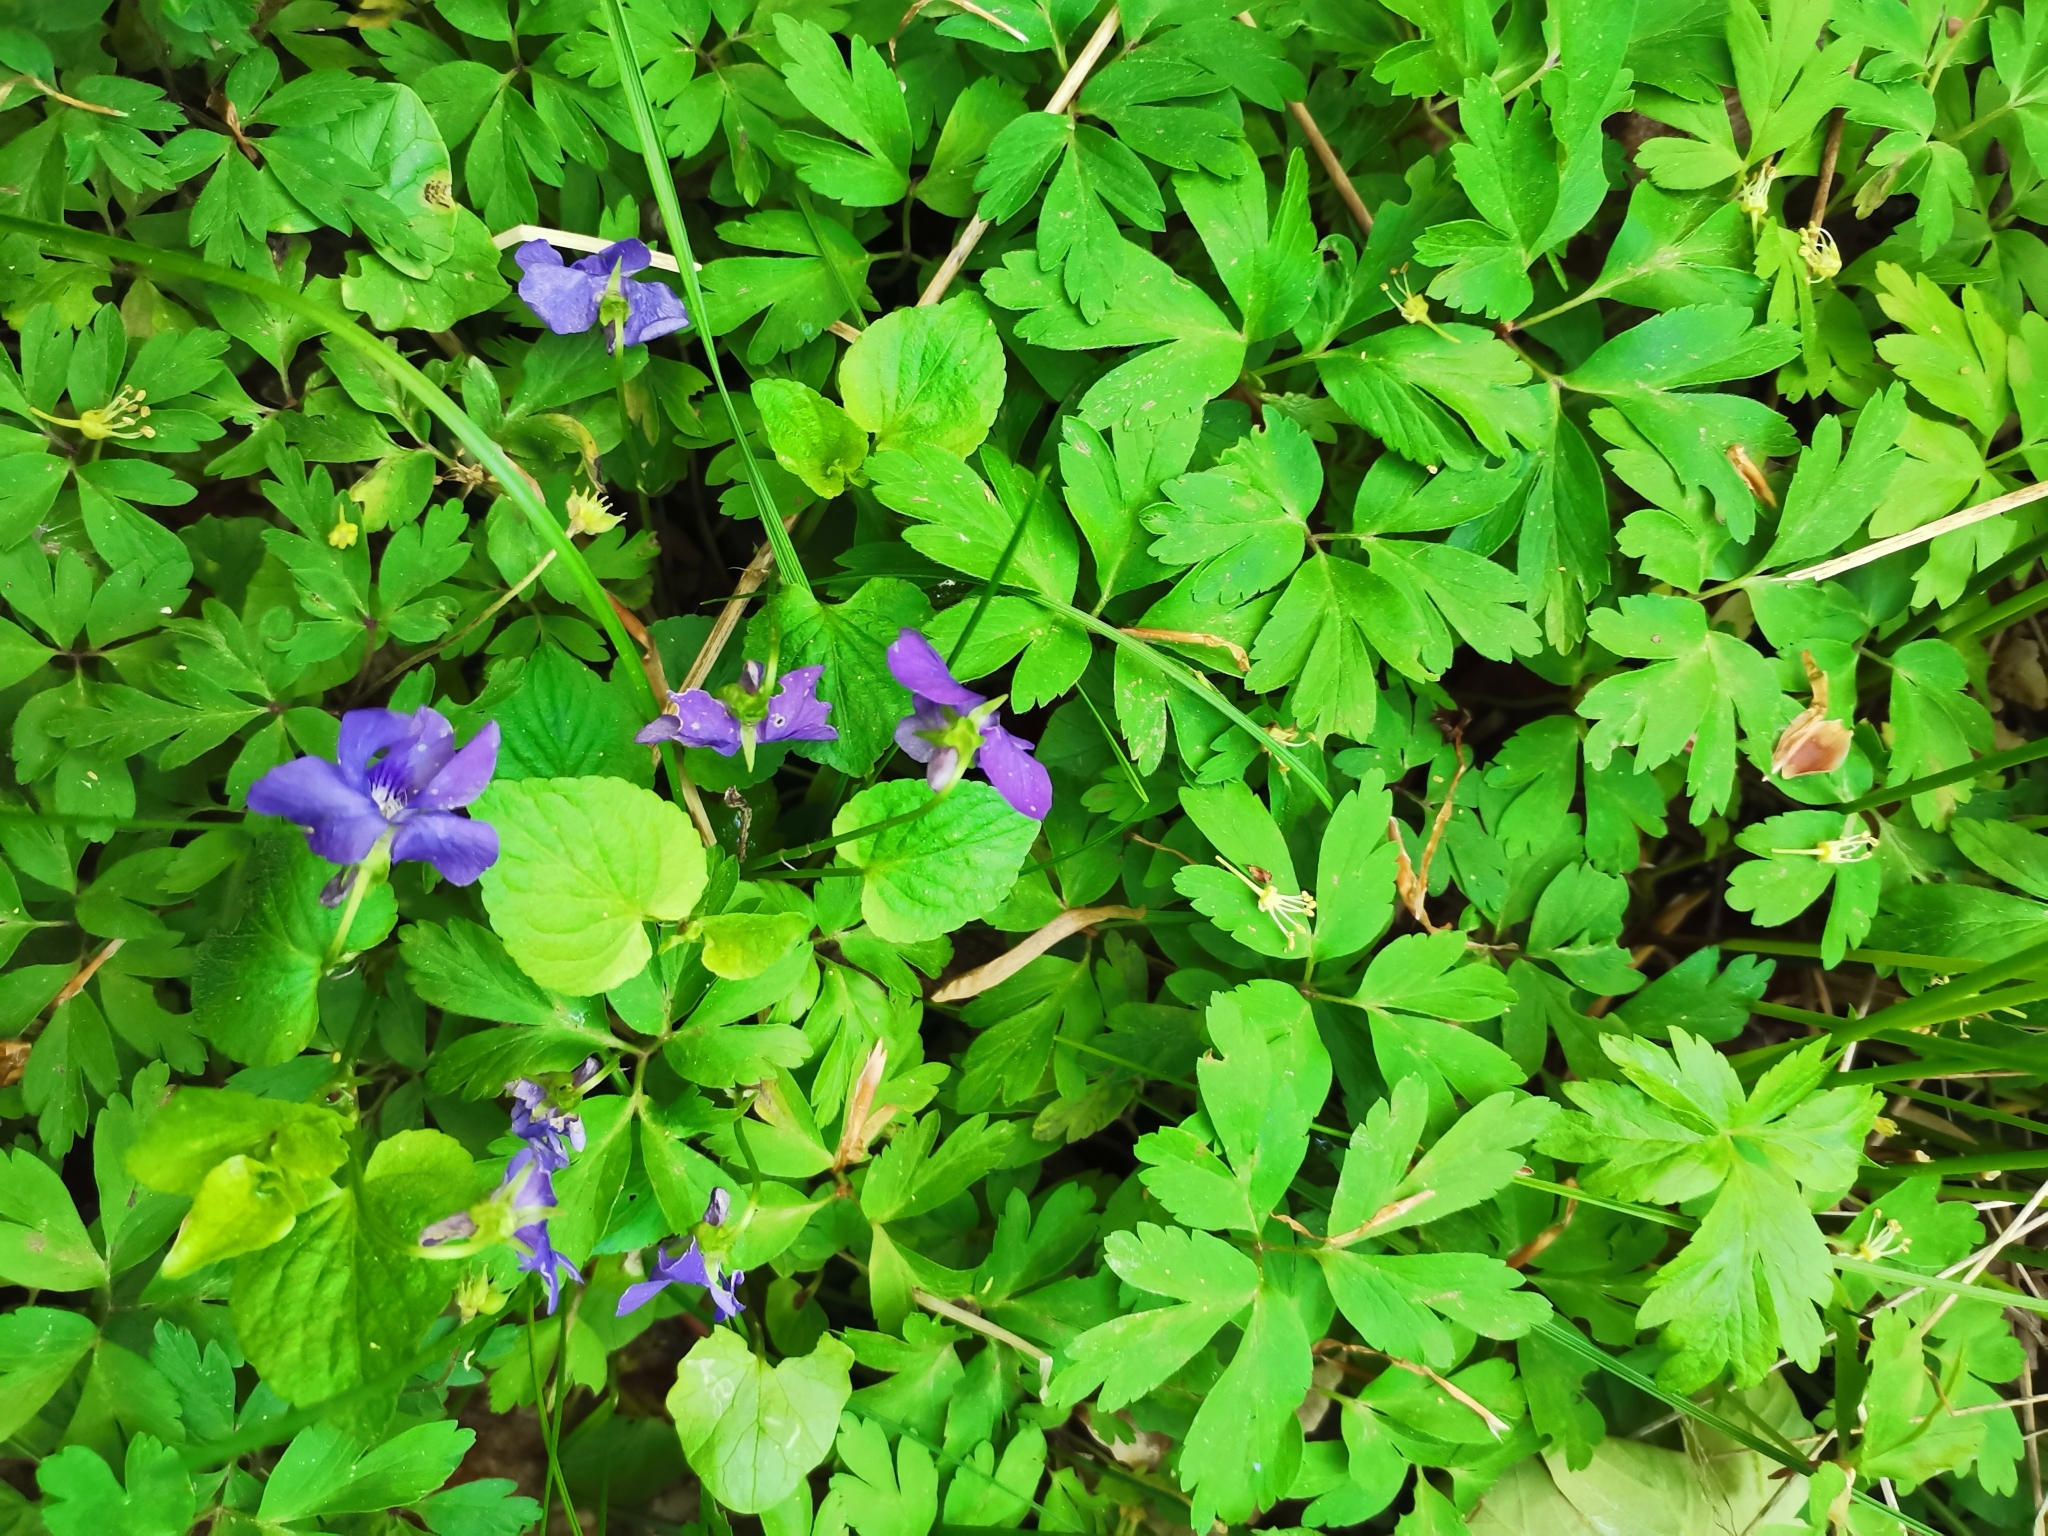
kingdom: Plantae
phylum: Tracheophyta
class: Magnoliopsida
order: Malpighiales
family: Violaceae
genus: Viola
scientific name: Viola reichenbachiana
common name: Early dog-violet
